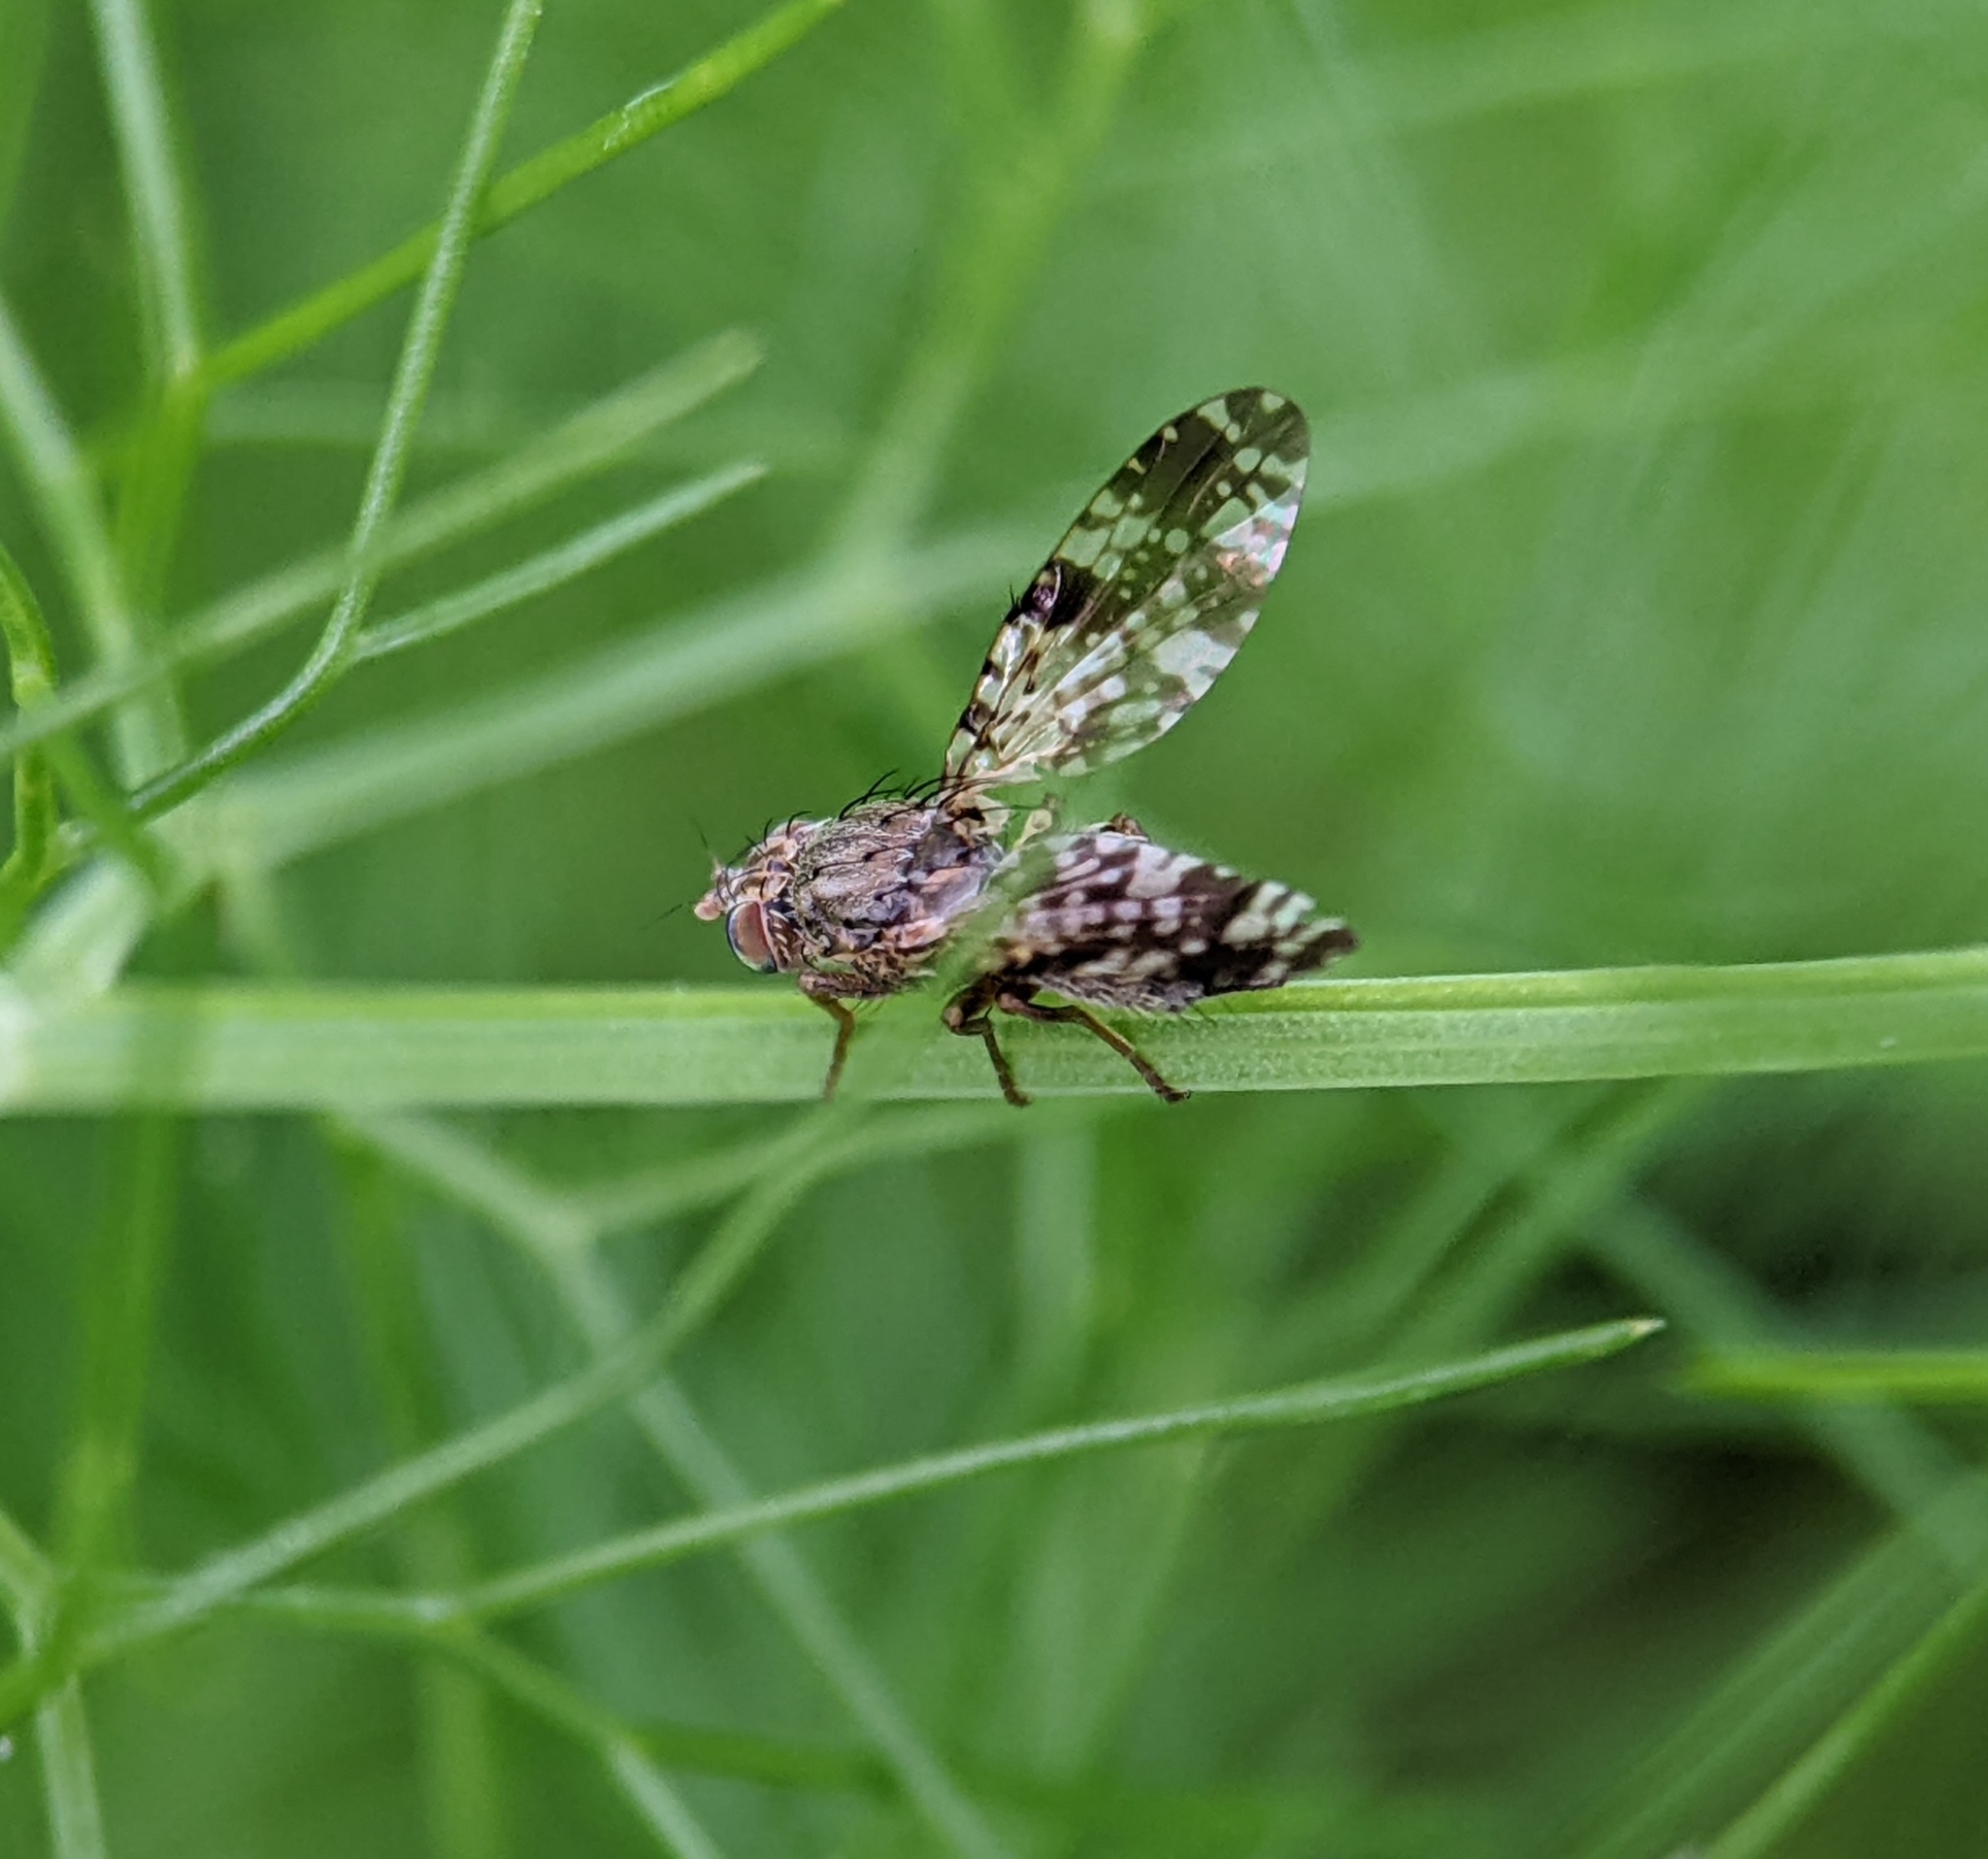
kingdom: Animalia
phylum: Arthropoda
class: Insecta
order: Diptera
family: Tephritidae
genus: Tephritis
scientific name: Tephritis vespertina
